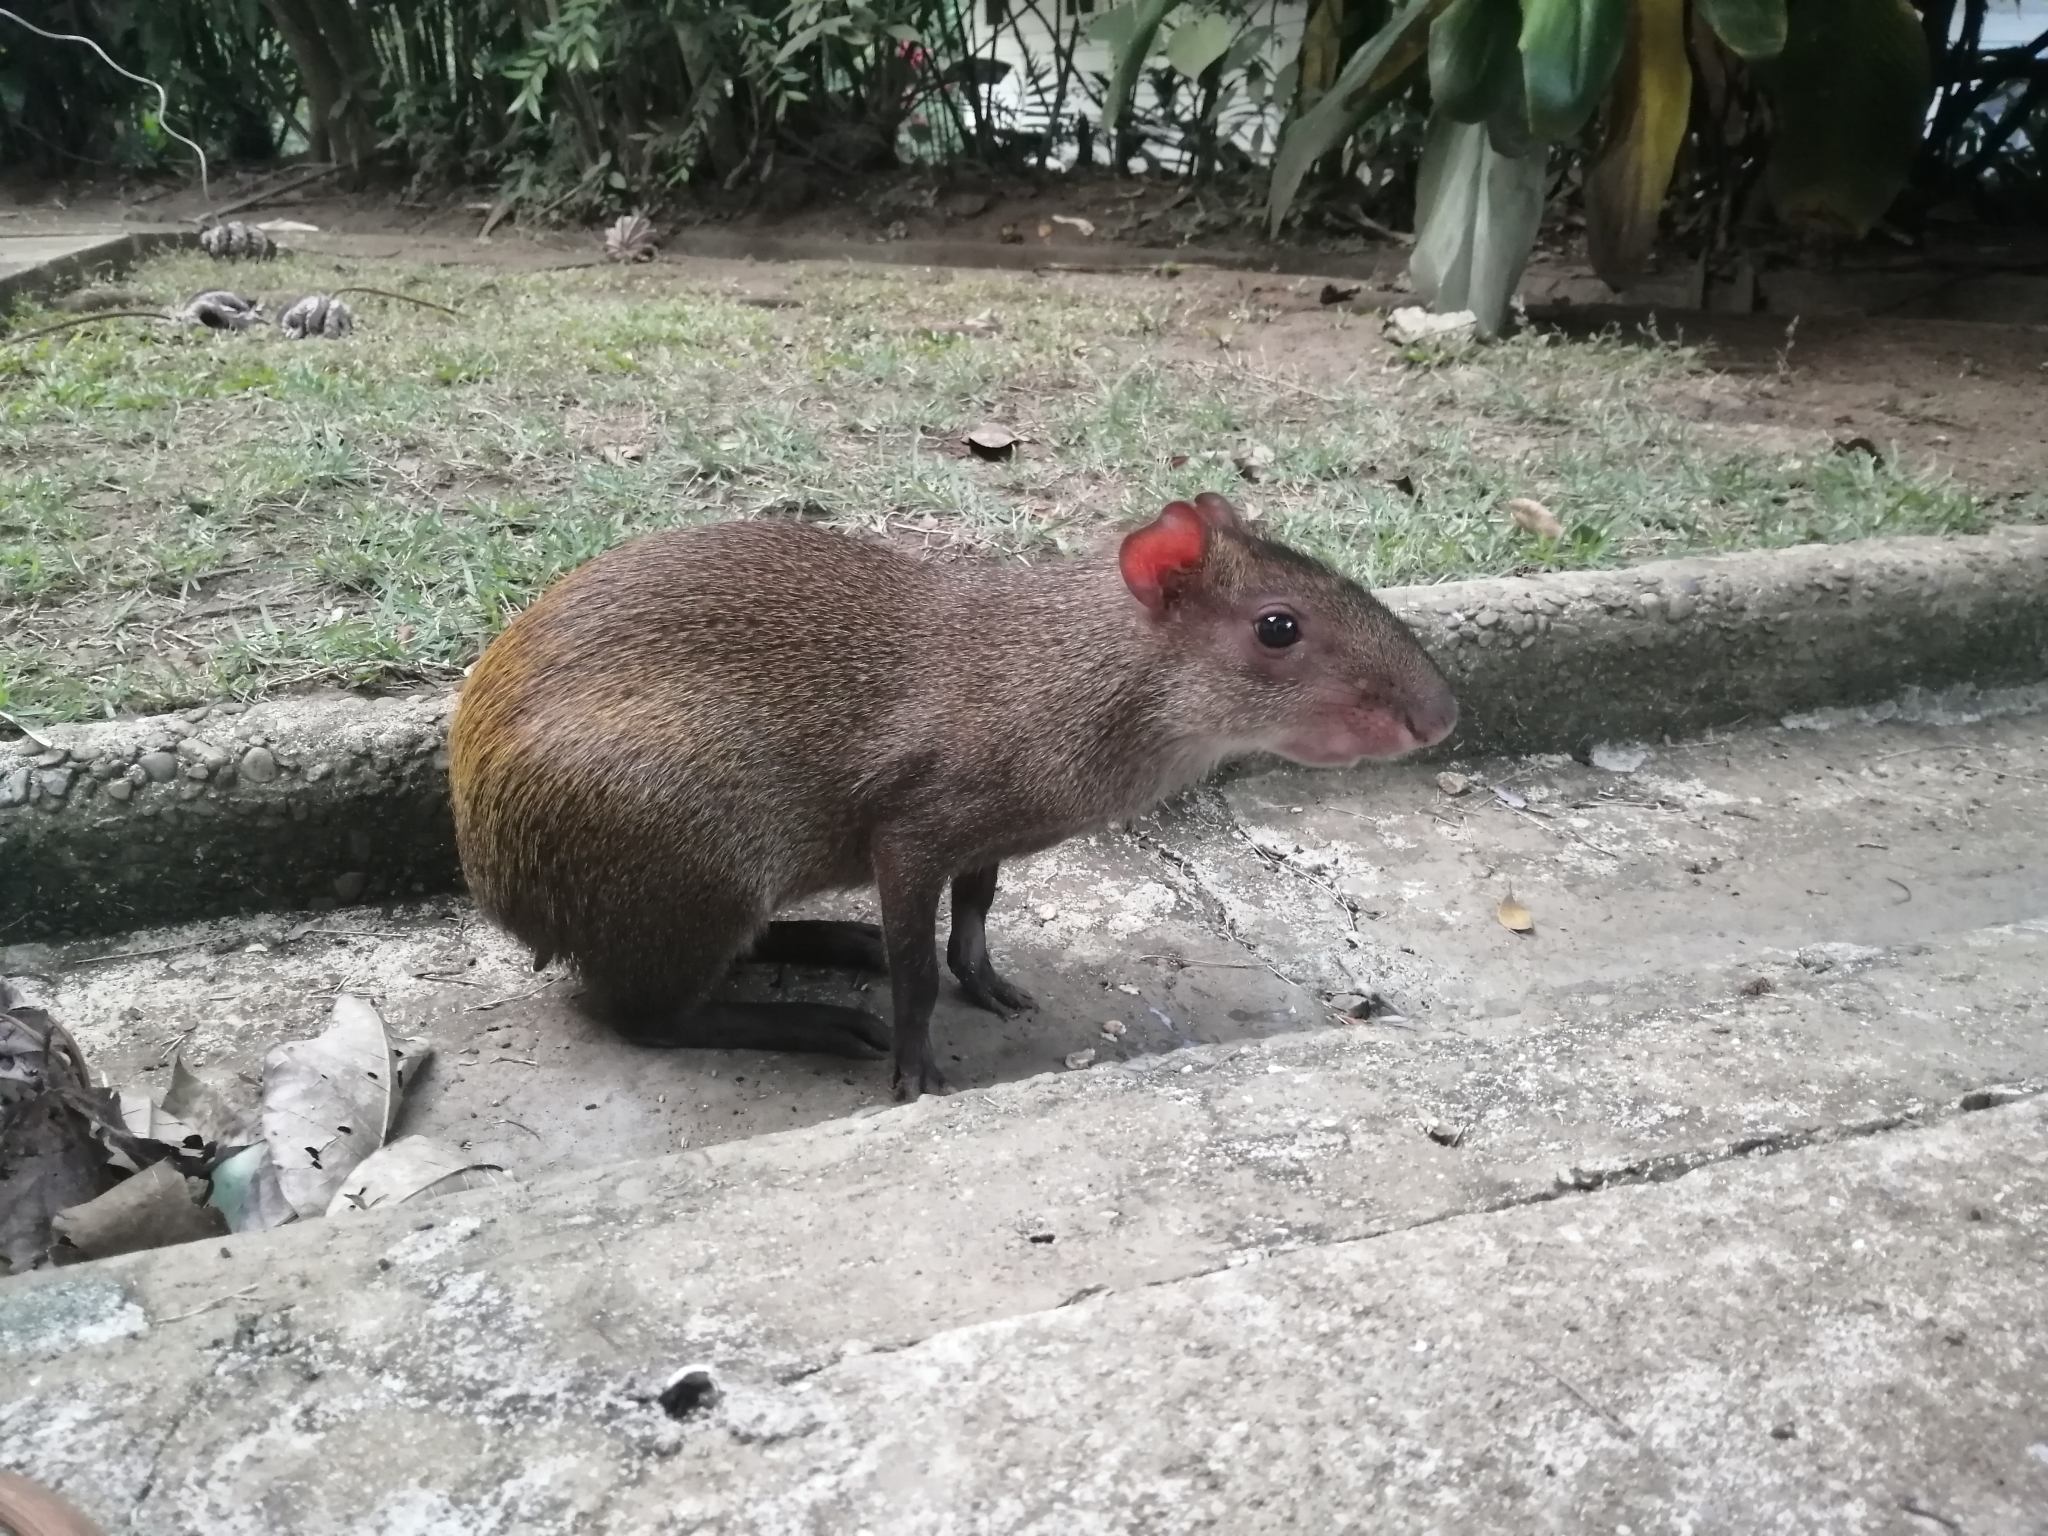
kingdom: Animalia
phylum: Chordata
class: Mammalia
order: Rodentia
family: Dasyproctidae
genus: Dasyprocta
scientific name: Dasyprocta punctata
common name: Central american agouti
